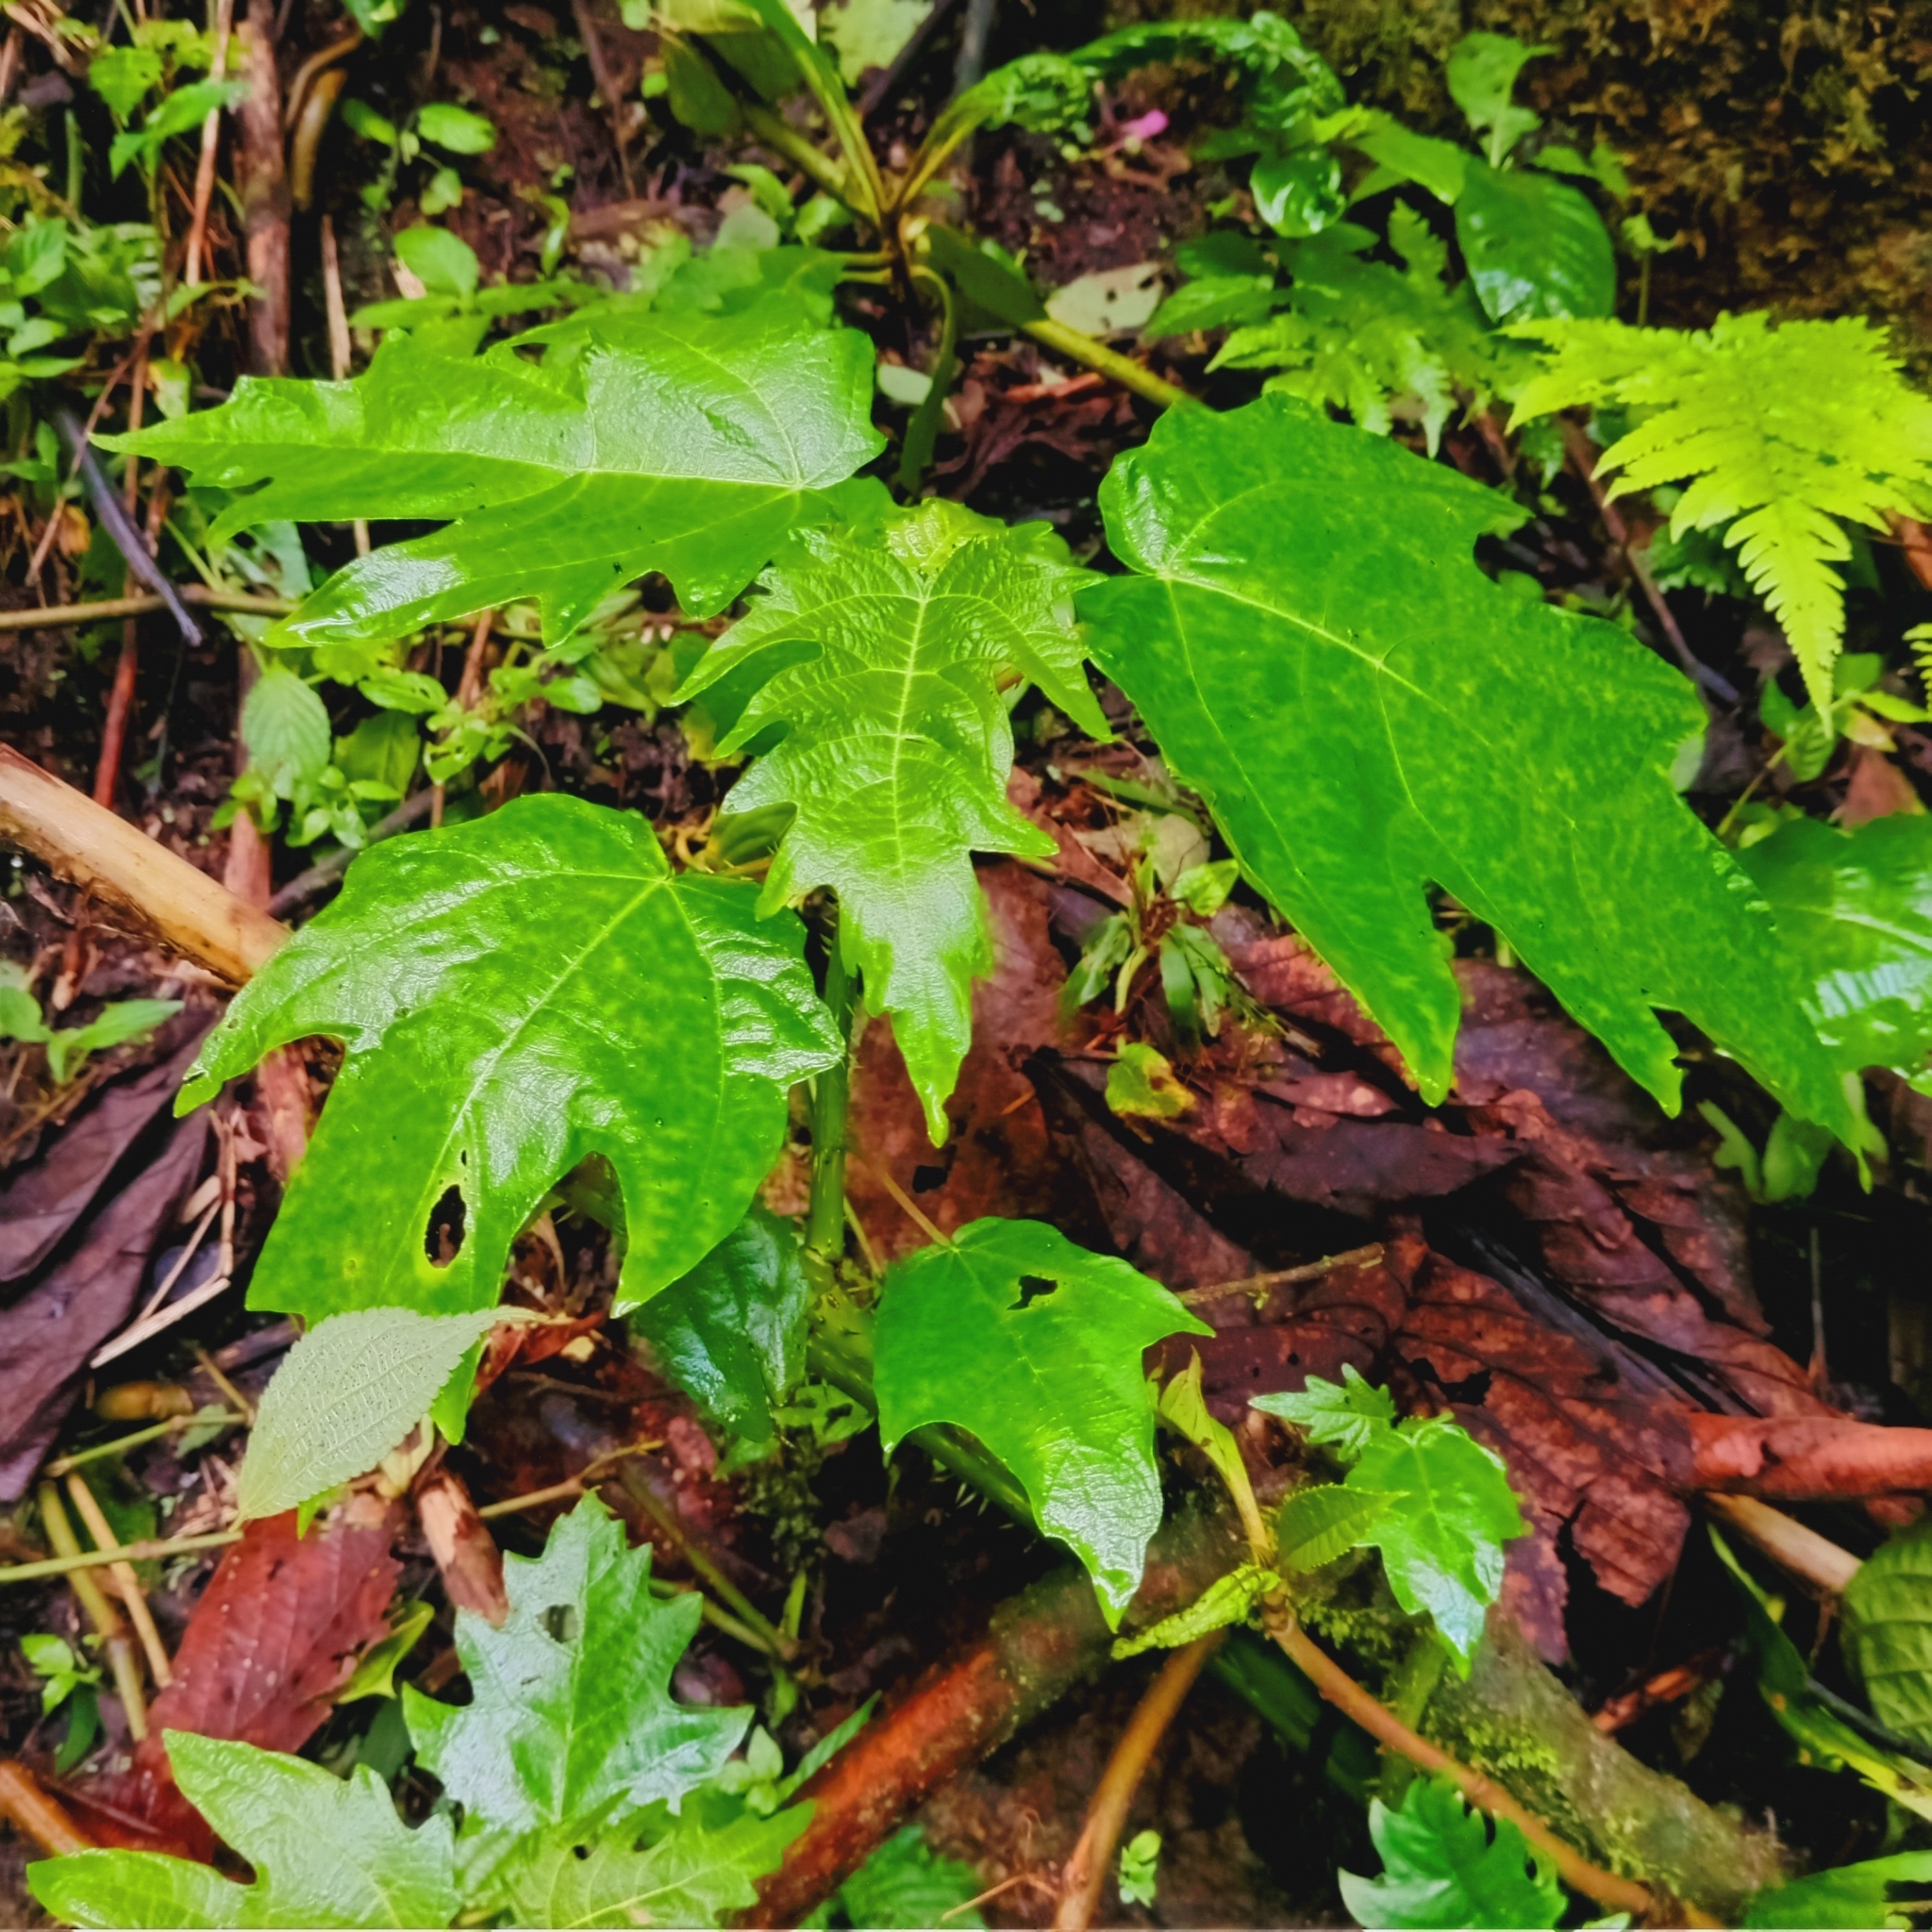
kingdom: Plantae
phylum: Tracheophyta
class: Magnoliopsida
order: Rosales
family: Urticaceae
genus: Urera
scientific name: Urera laciniata
